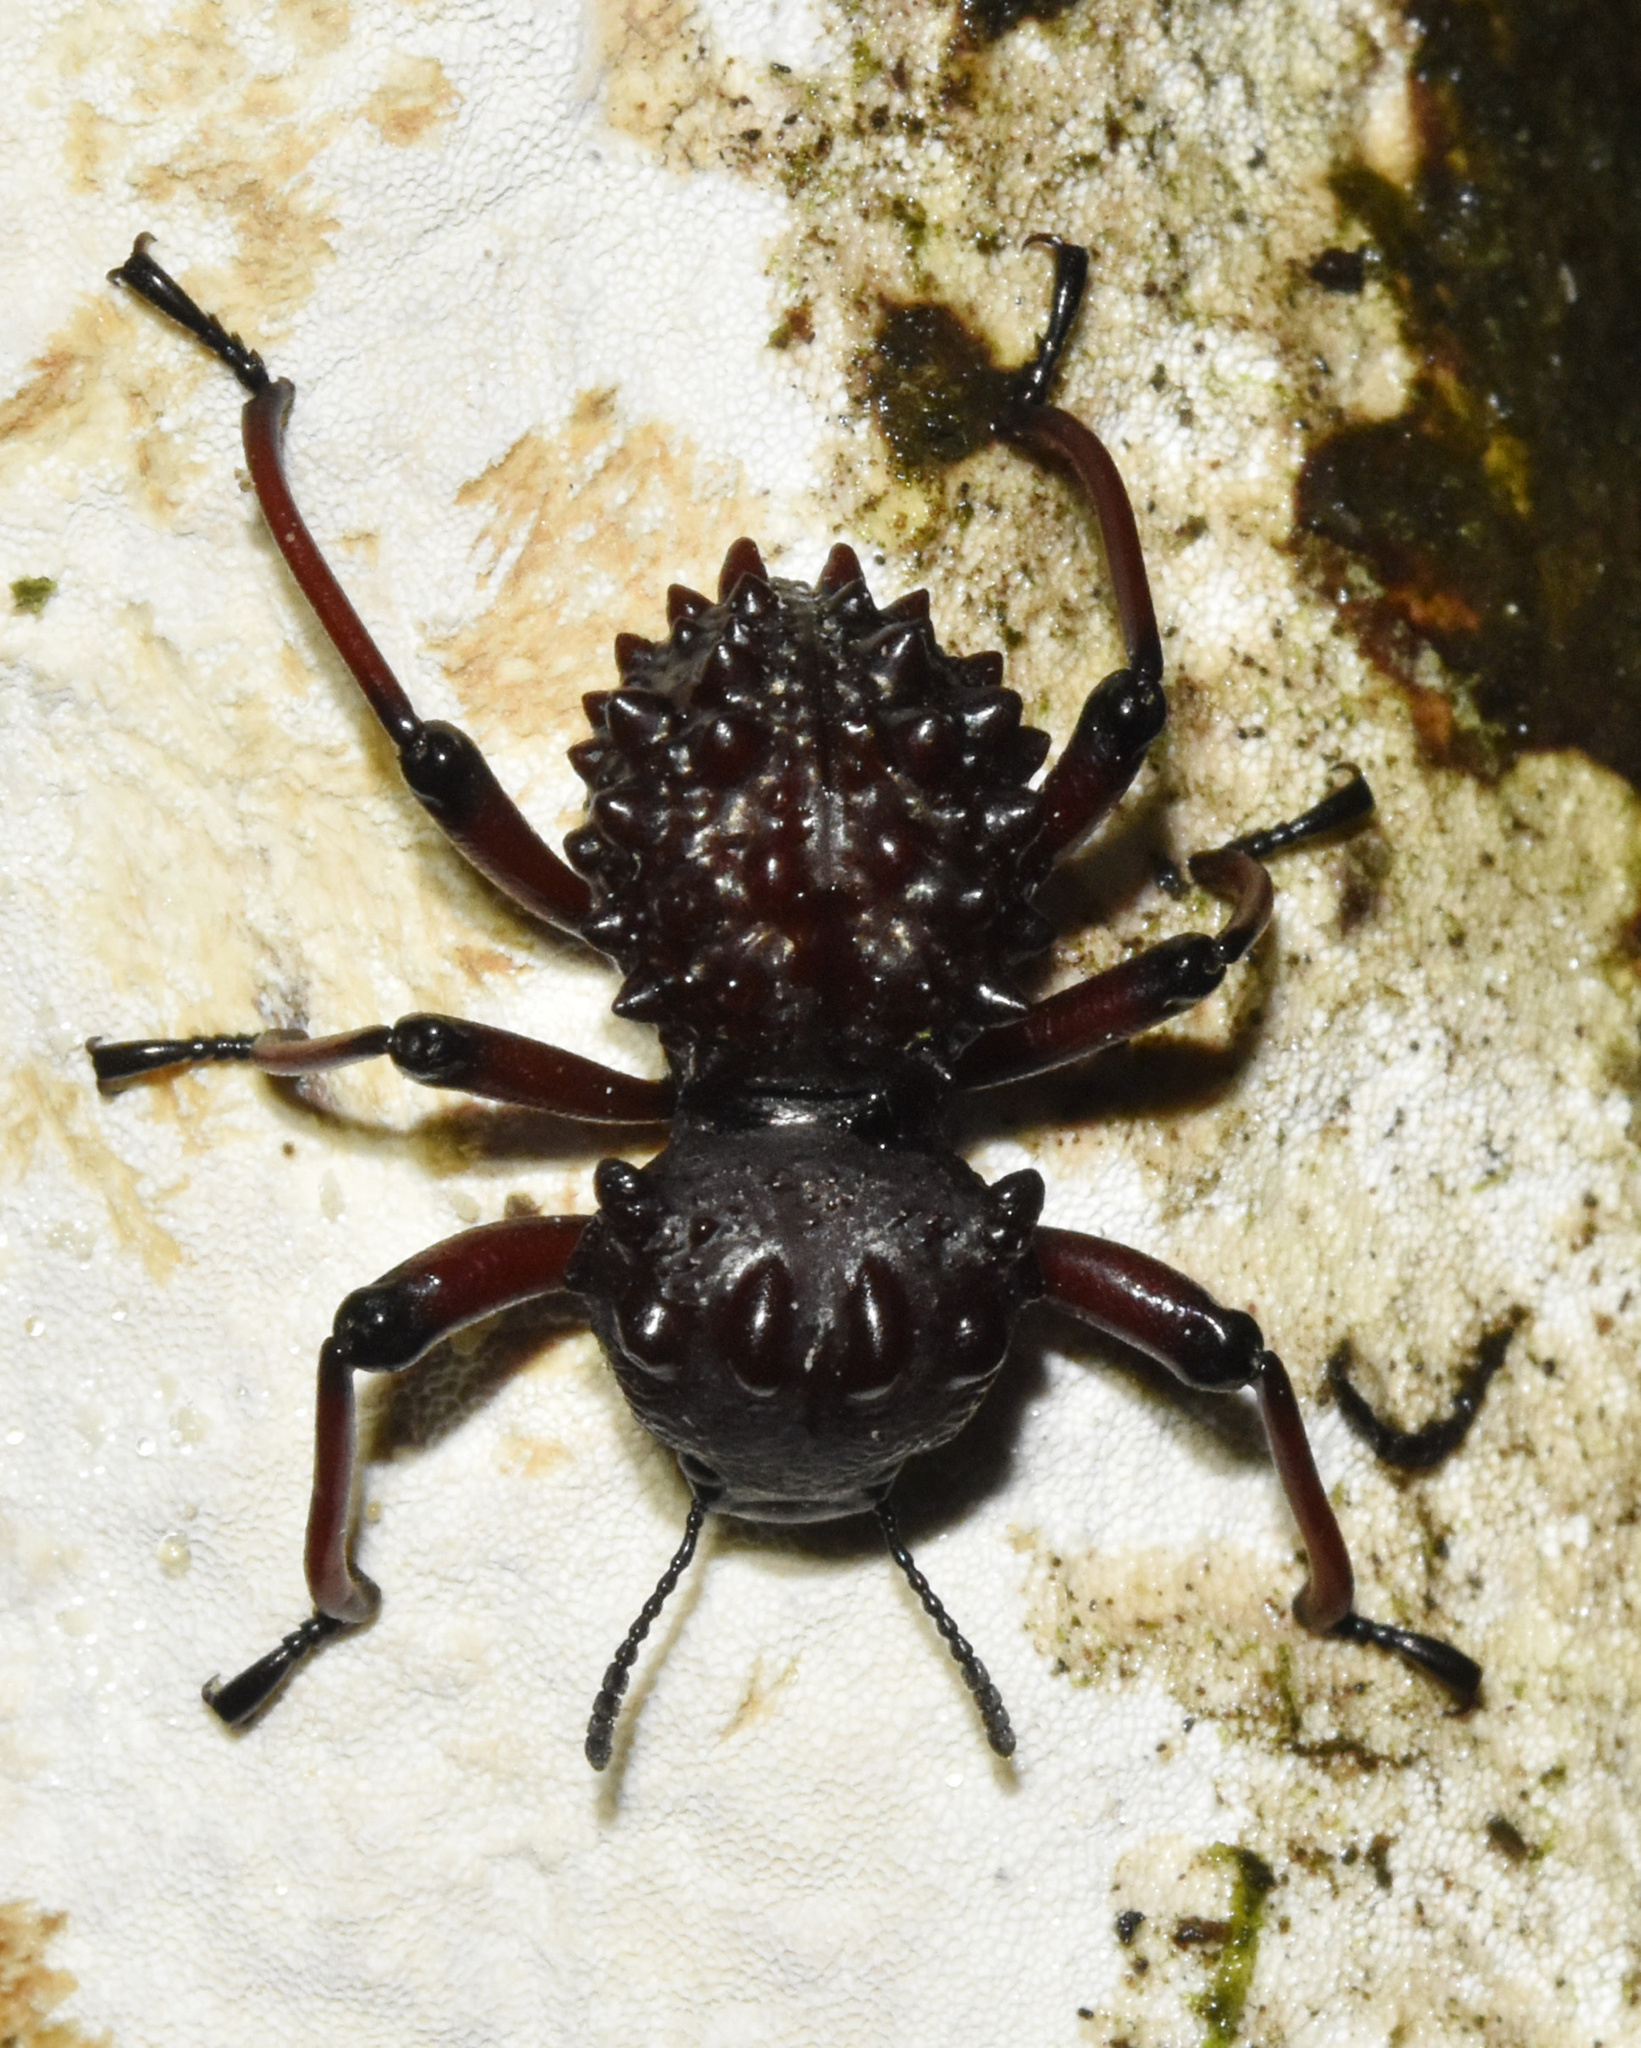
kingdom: Animalia
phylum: Arthropoda
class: Insecta
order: Coleoptera
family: Tenebrionidae
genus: Cyrtotyche
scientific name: Cyrtotyche
